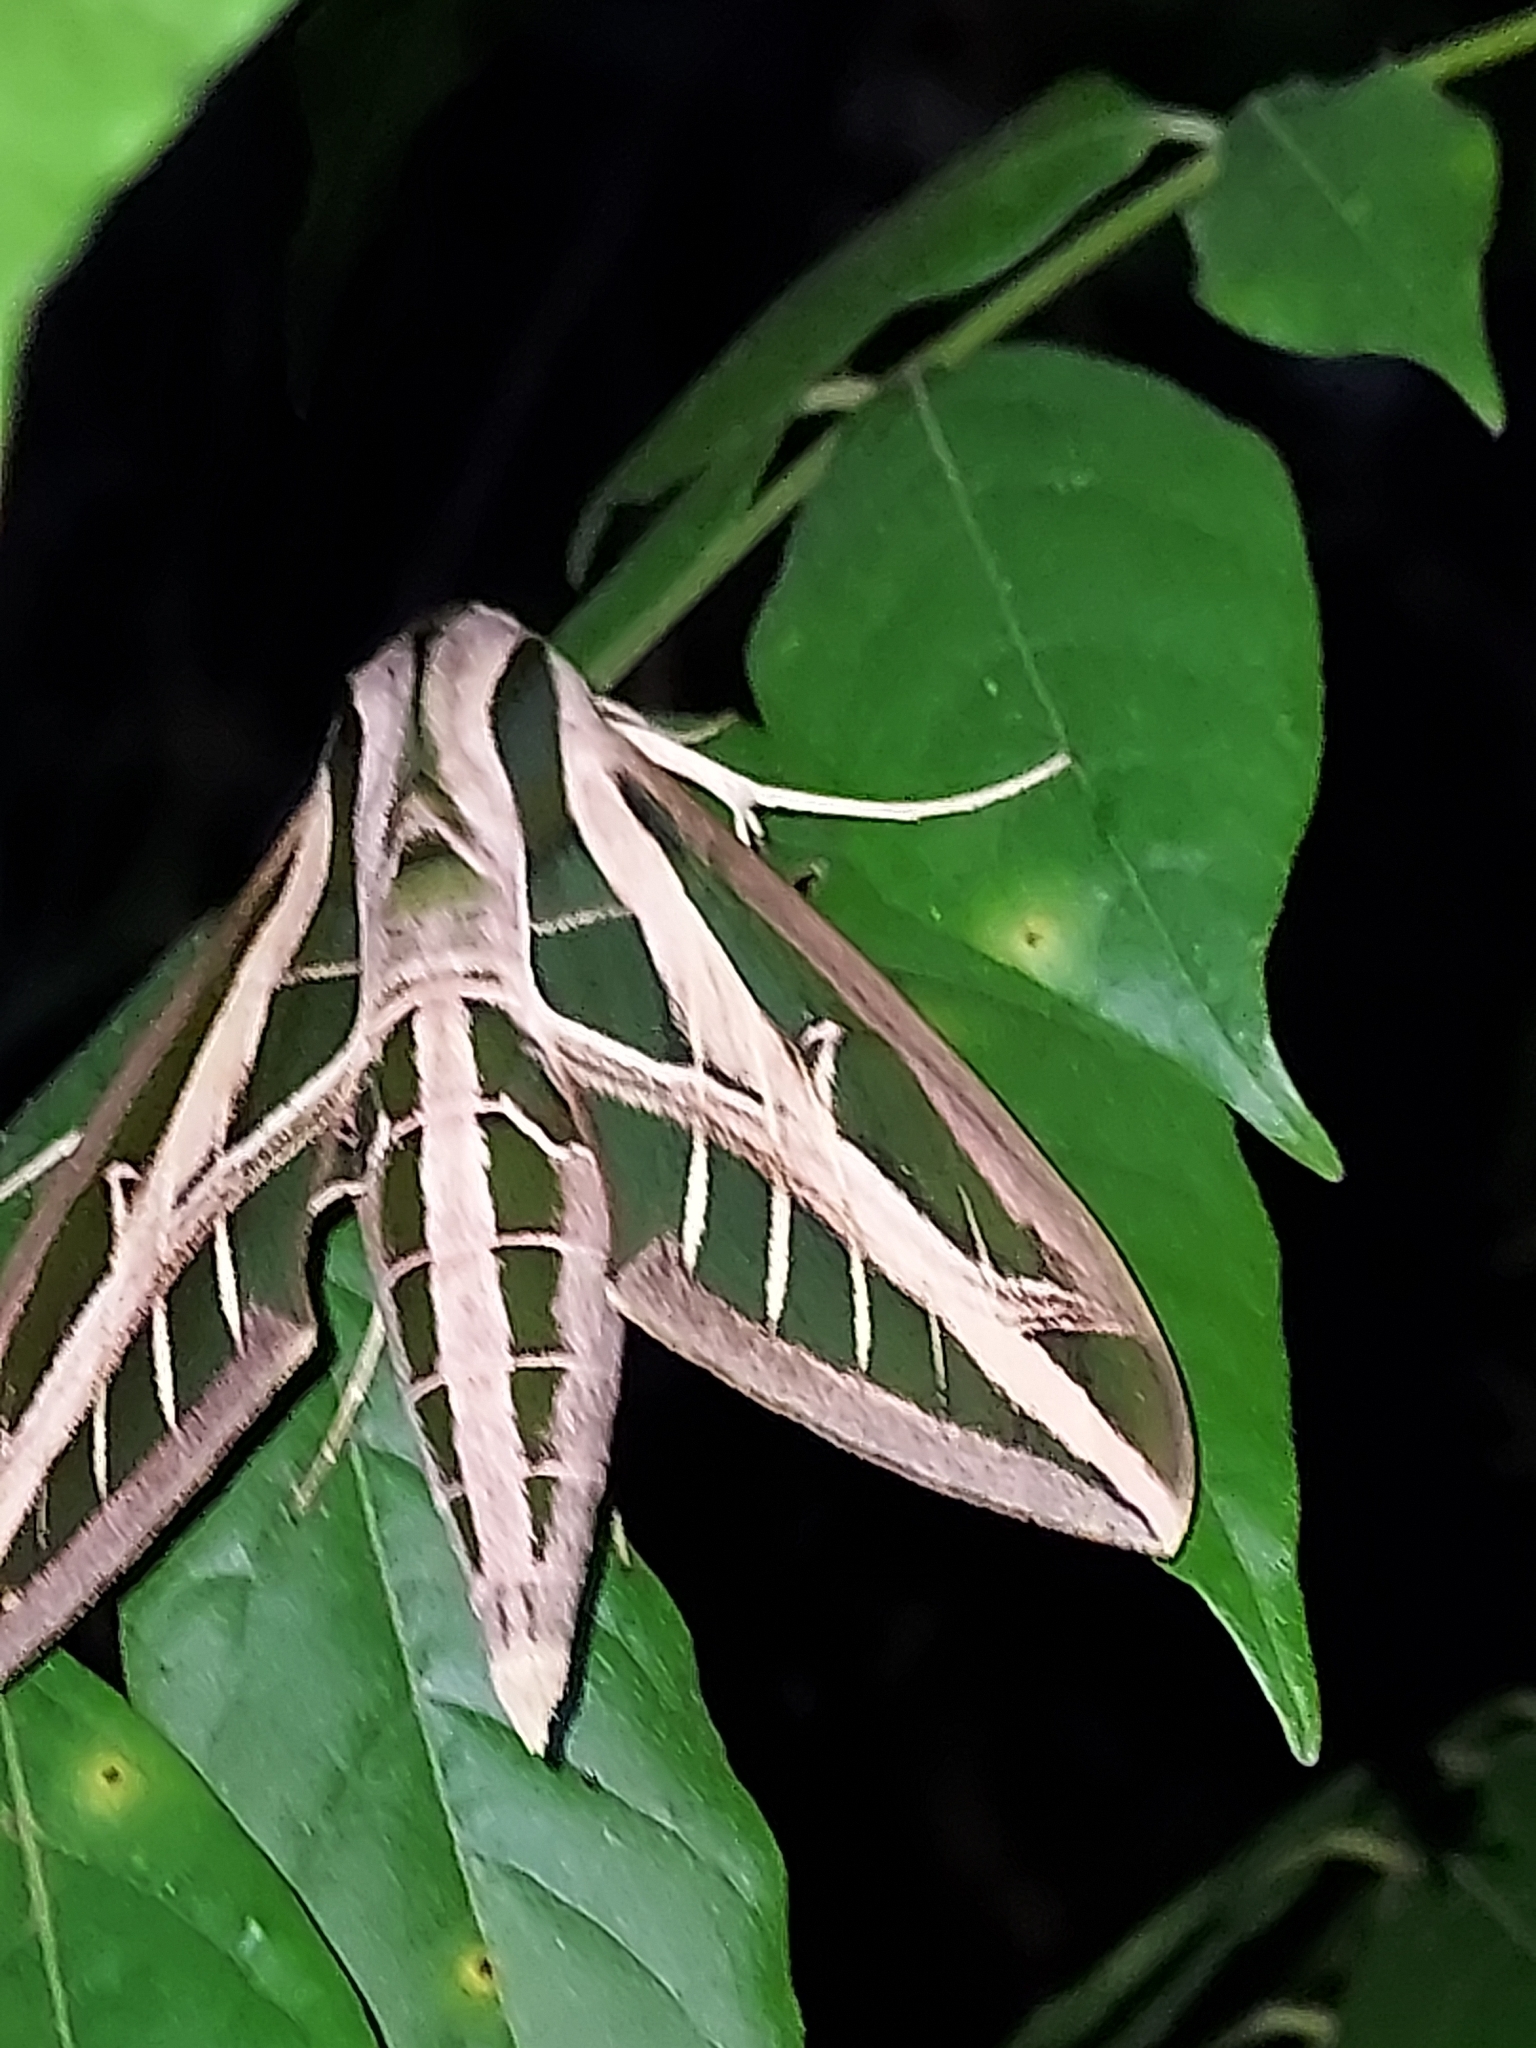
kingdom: Animalia
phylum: Arthropoda
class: Insecta
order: Lepidoptera
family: Sphingidae
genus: Eumorpha
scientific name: Eumorpha fasciatus
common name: Banded sphinx
